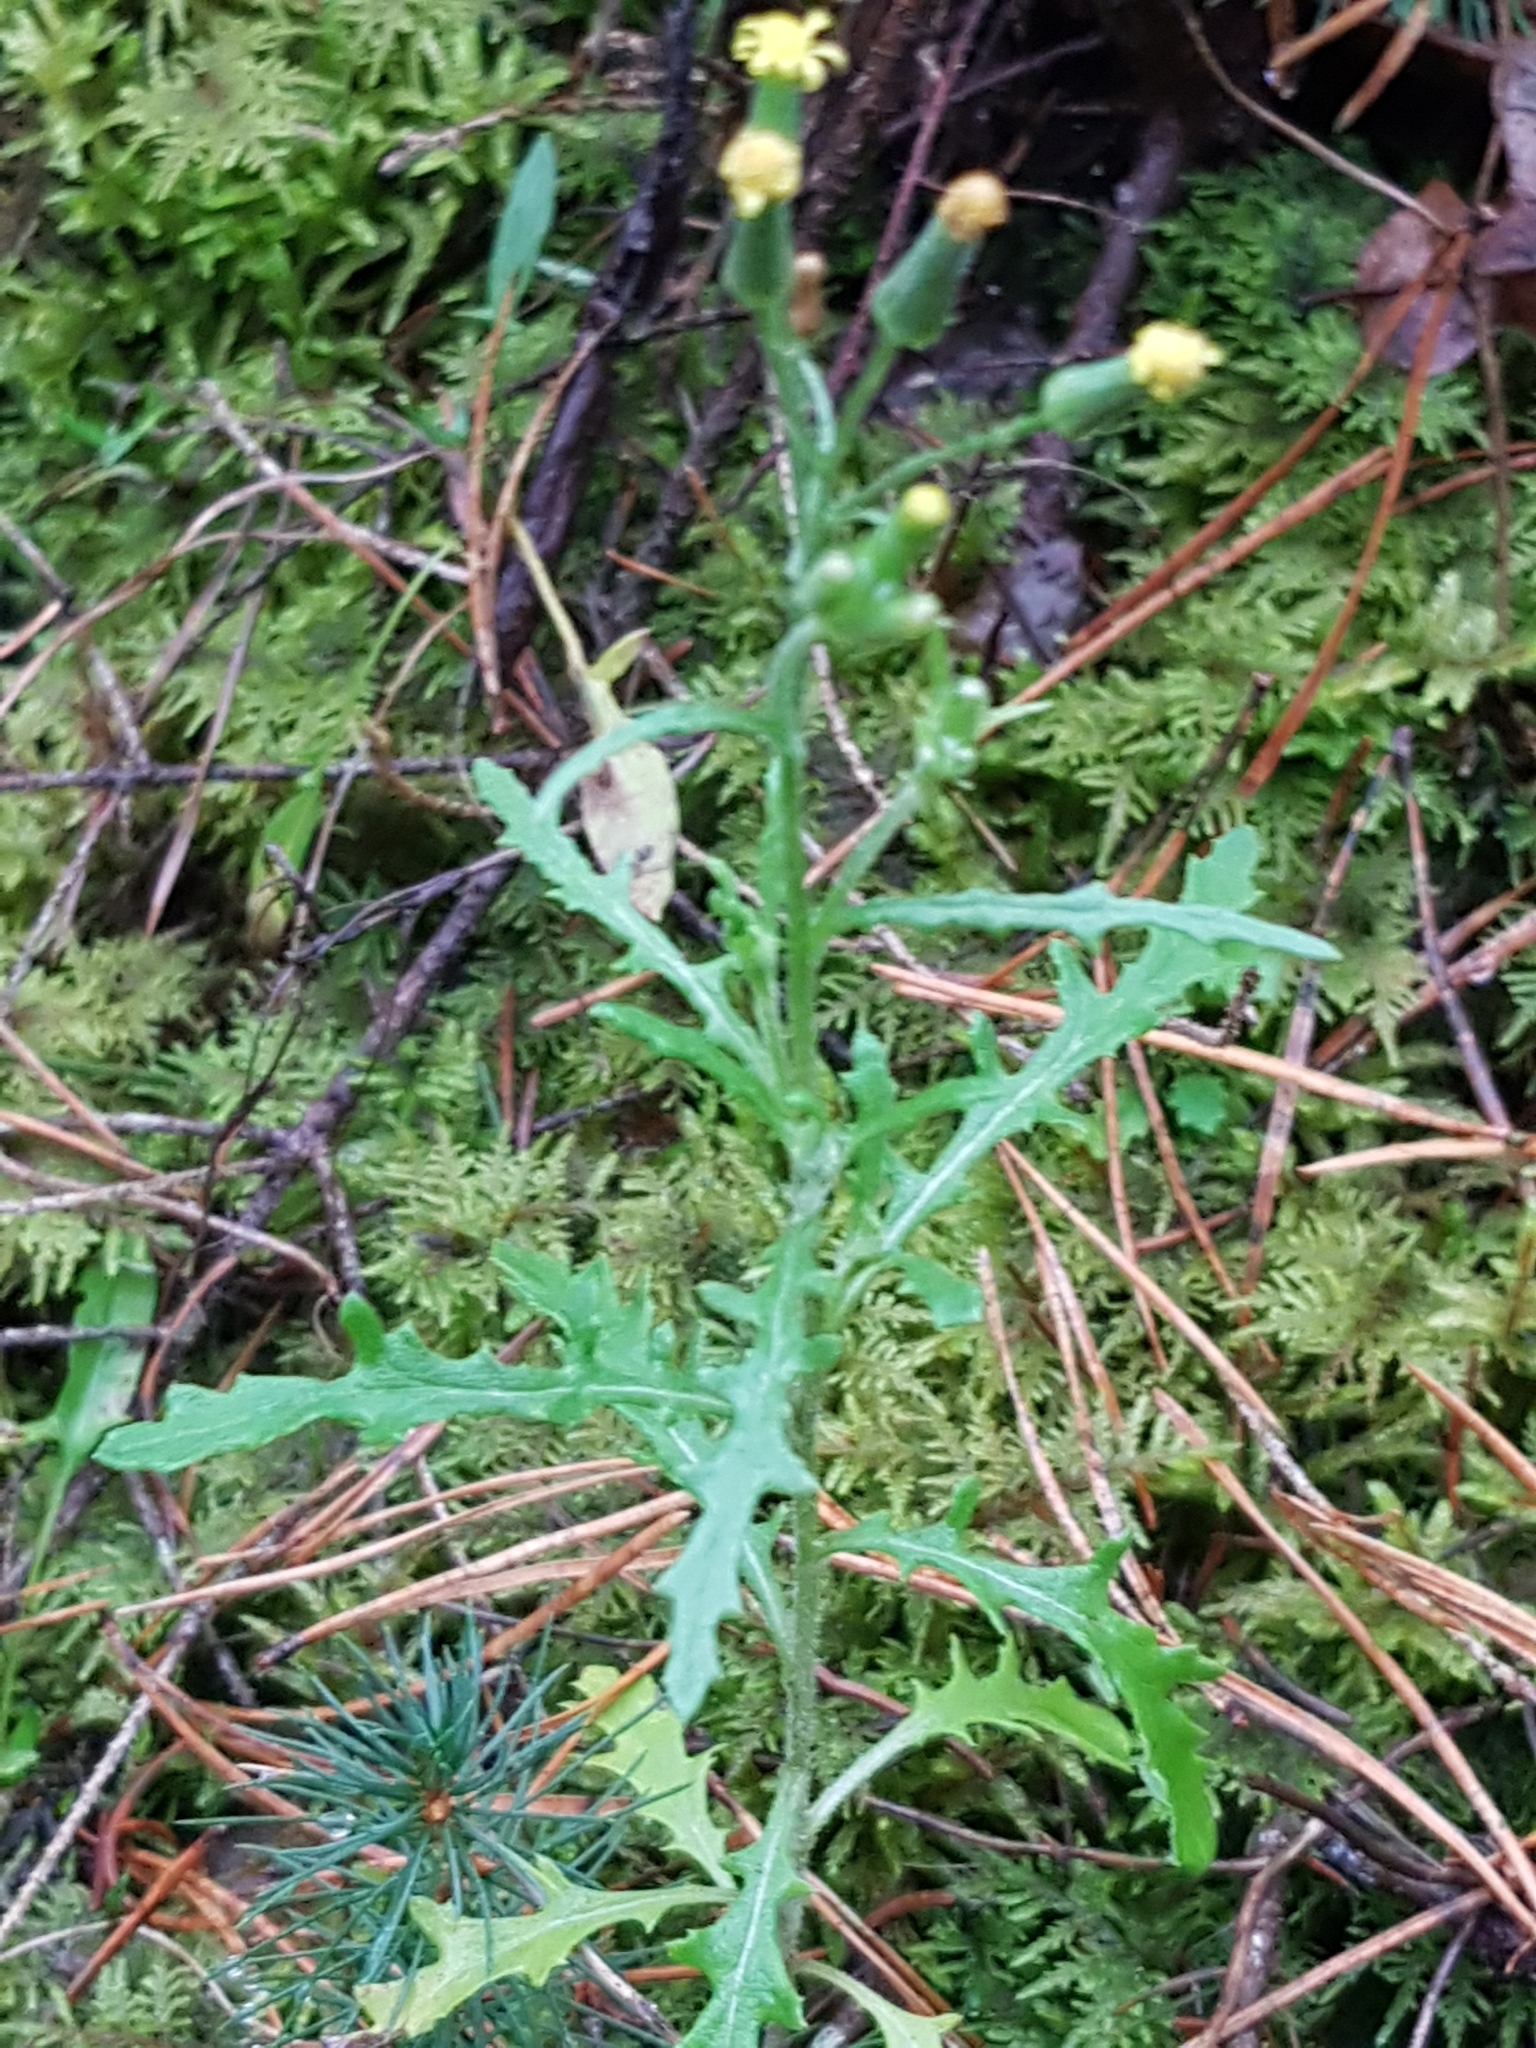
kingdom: Plantae
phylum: Tracheophyta
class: Magnoliopsida
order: Asterales
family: Asteraceae
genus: Senecio
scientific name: Senecio sylvaticus
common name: Woodland ragwort
